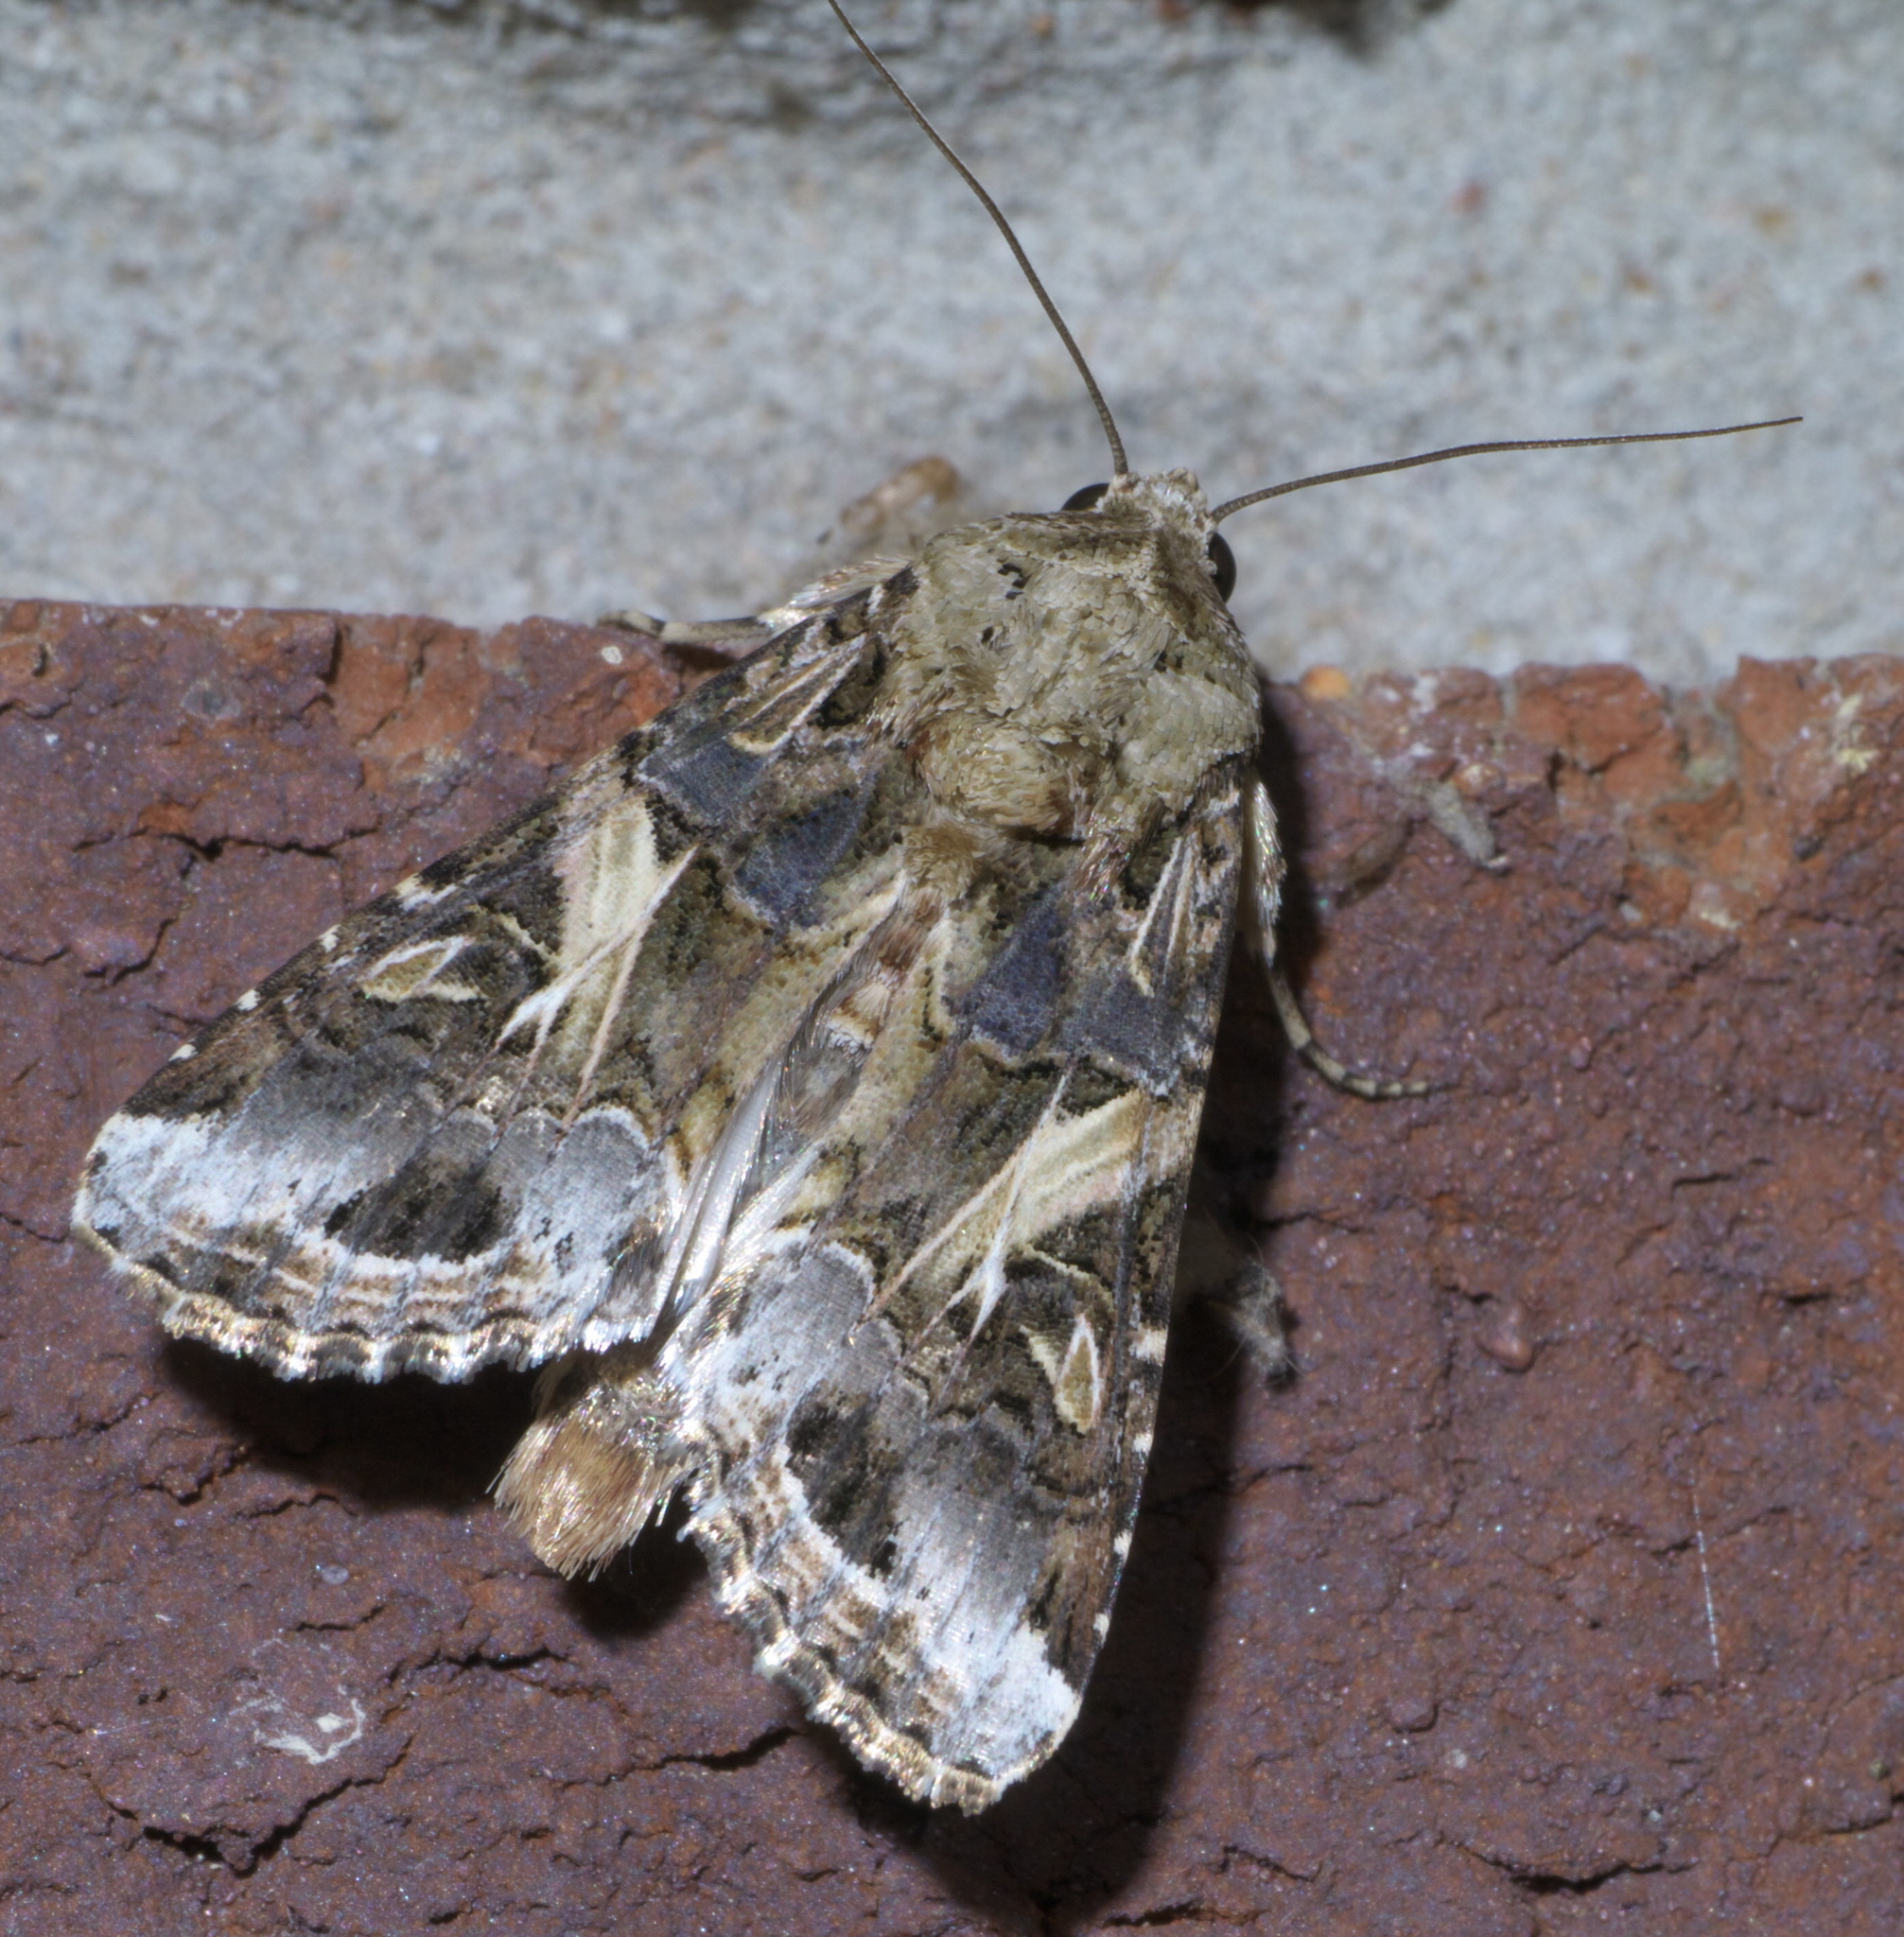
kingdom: Animalia
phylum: Arthropoda
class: Insecta
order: Lepidoptera
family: Noctuidae
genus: Spodoptera
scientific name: Spodoptera ornithogalli
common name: Yellow-striped armyworm
